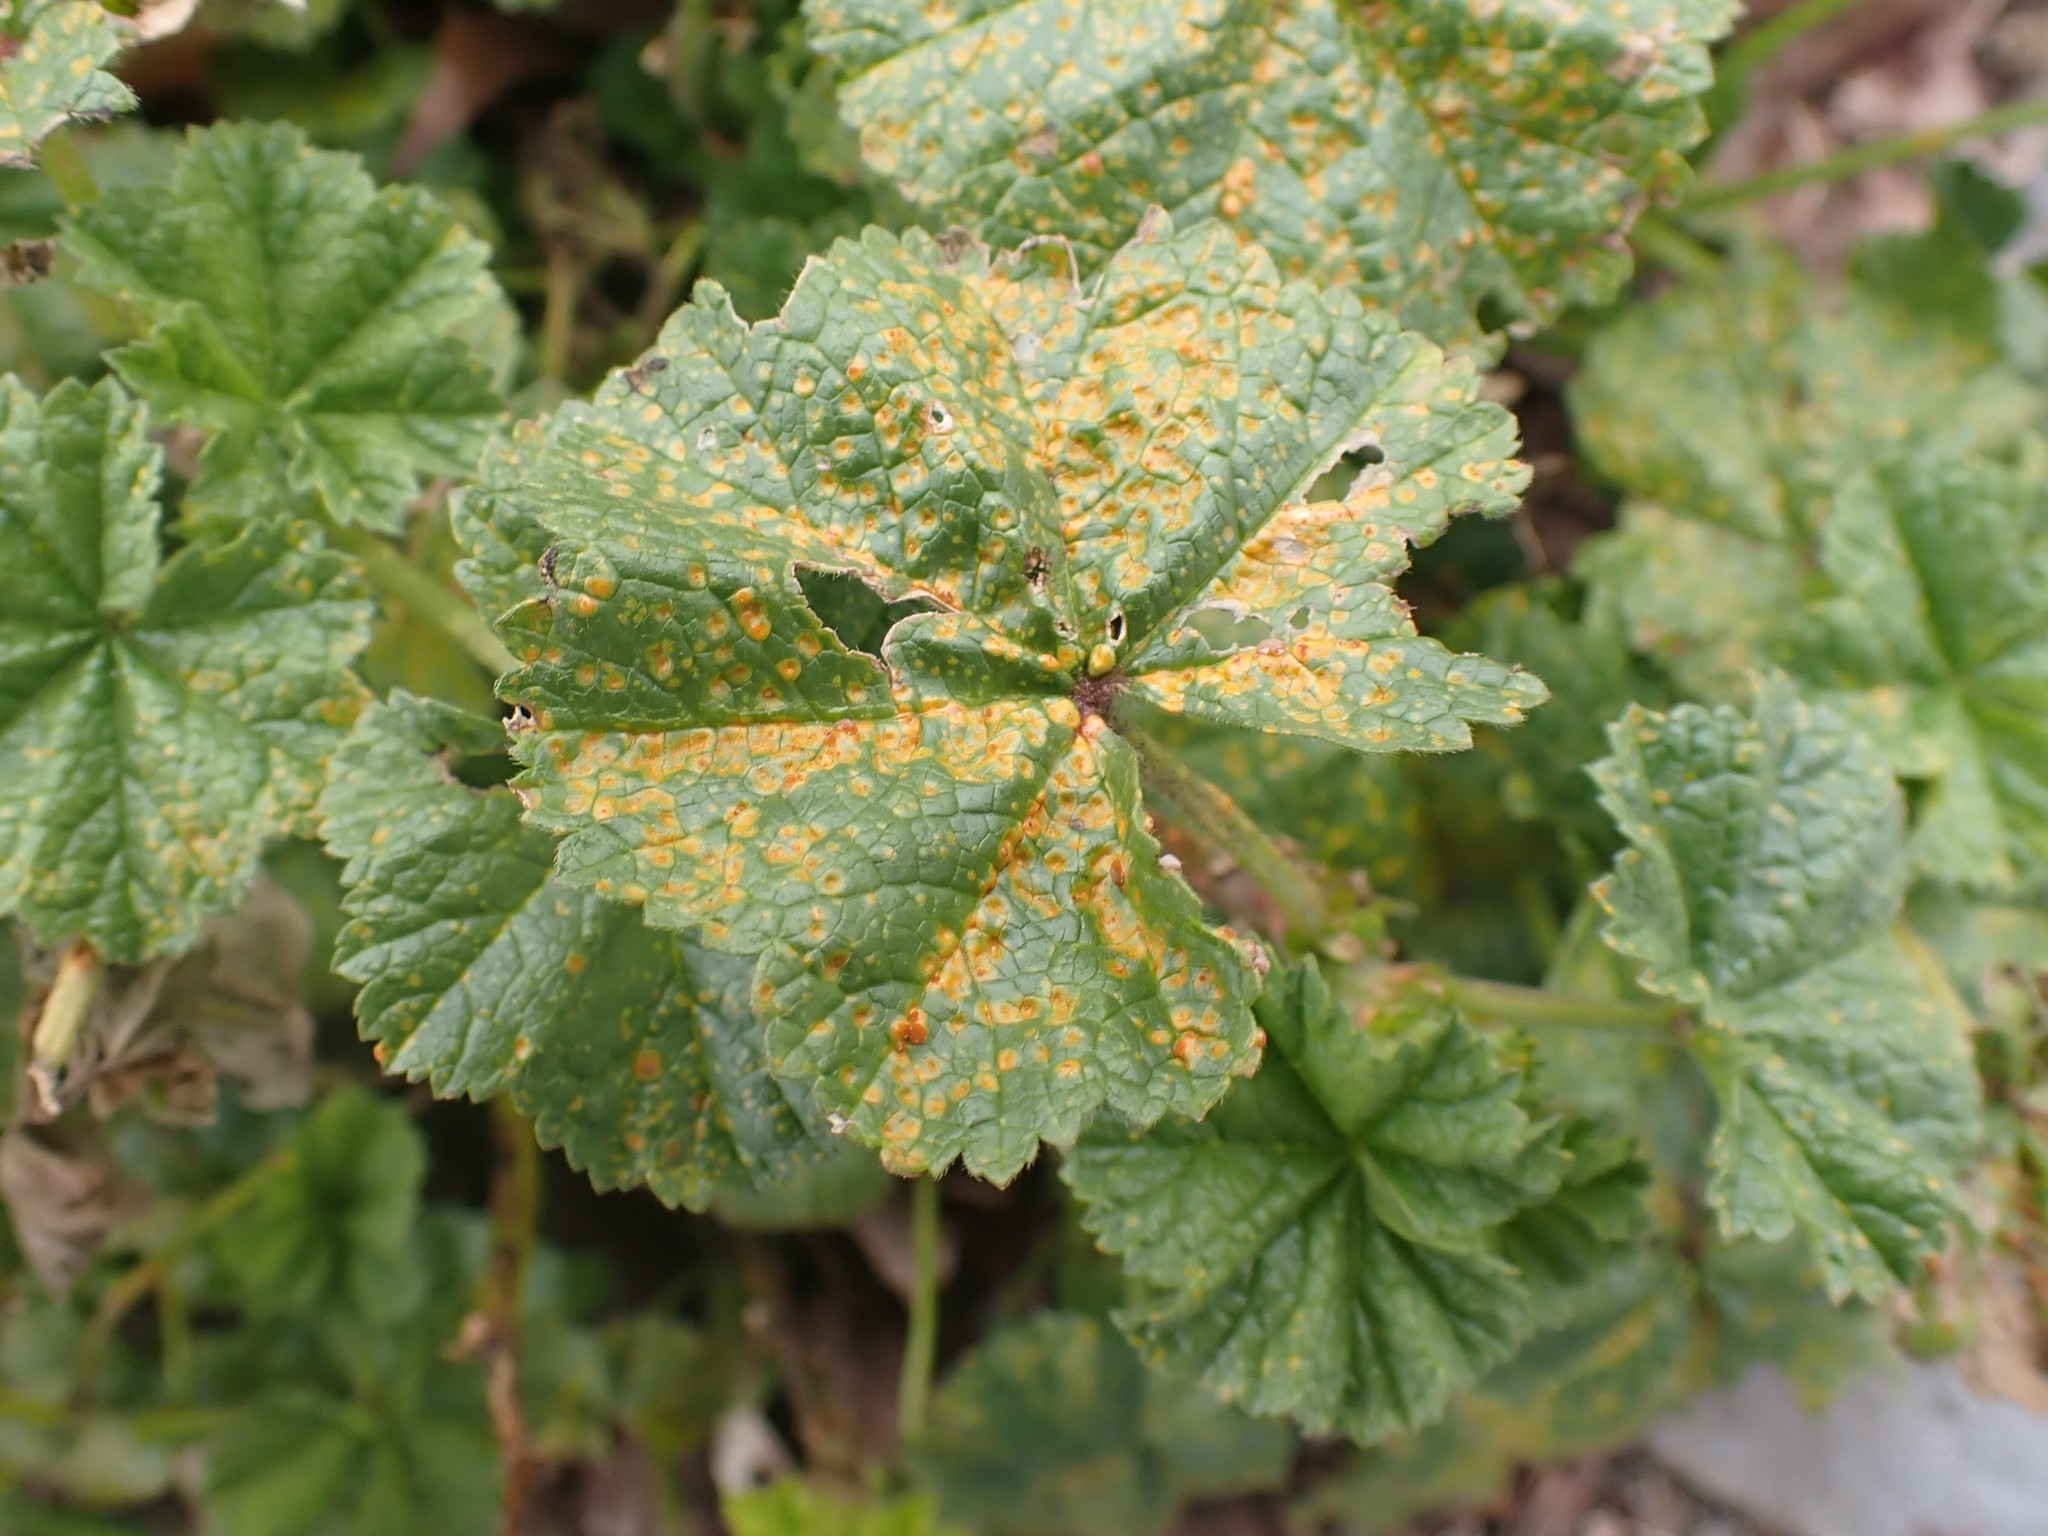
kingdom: Fungi
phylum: Basidiomycota
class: Pucciniomycetes
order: Pucciniales
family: Pucciniaceae
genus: Puccinia
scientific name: Puccinia malvacearum
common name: Hollyhock rust
